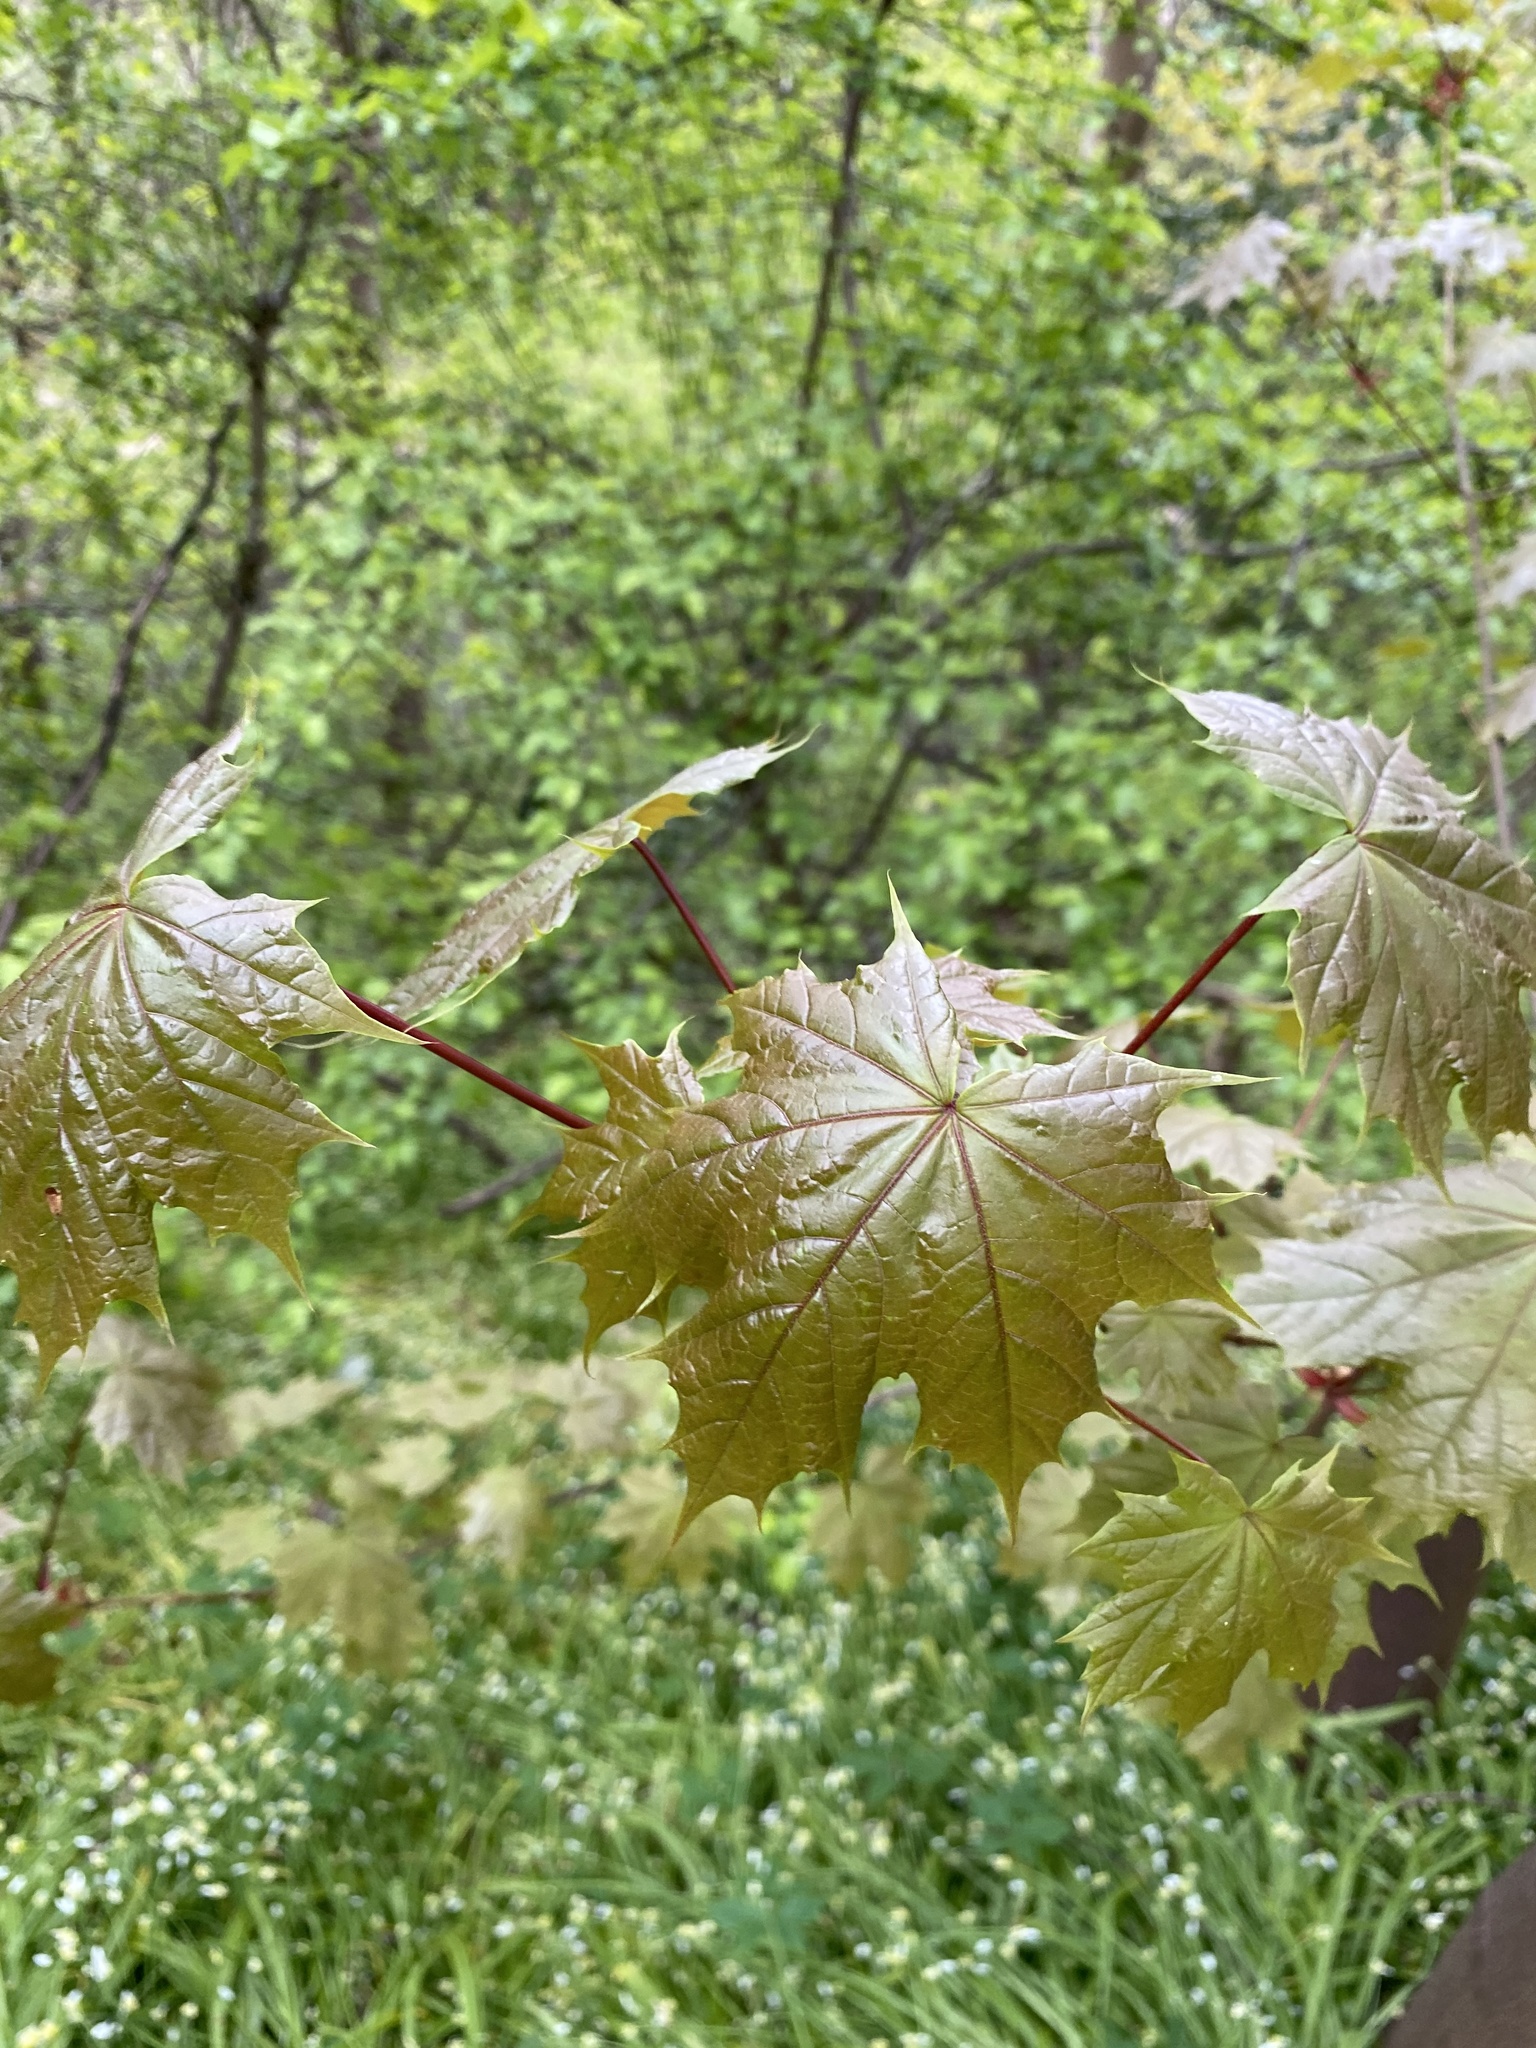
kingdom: Plantae
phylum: Tracheophyta
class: Magnoliopsida
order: Sapindales
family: Sapindaceae
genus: Acer
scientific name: Acer platanoides
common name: Norway maple
